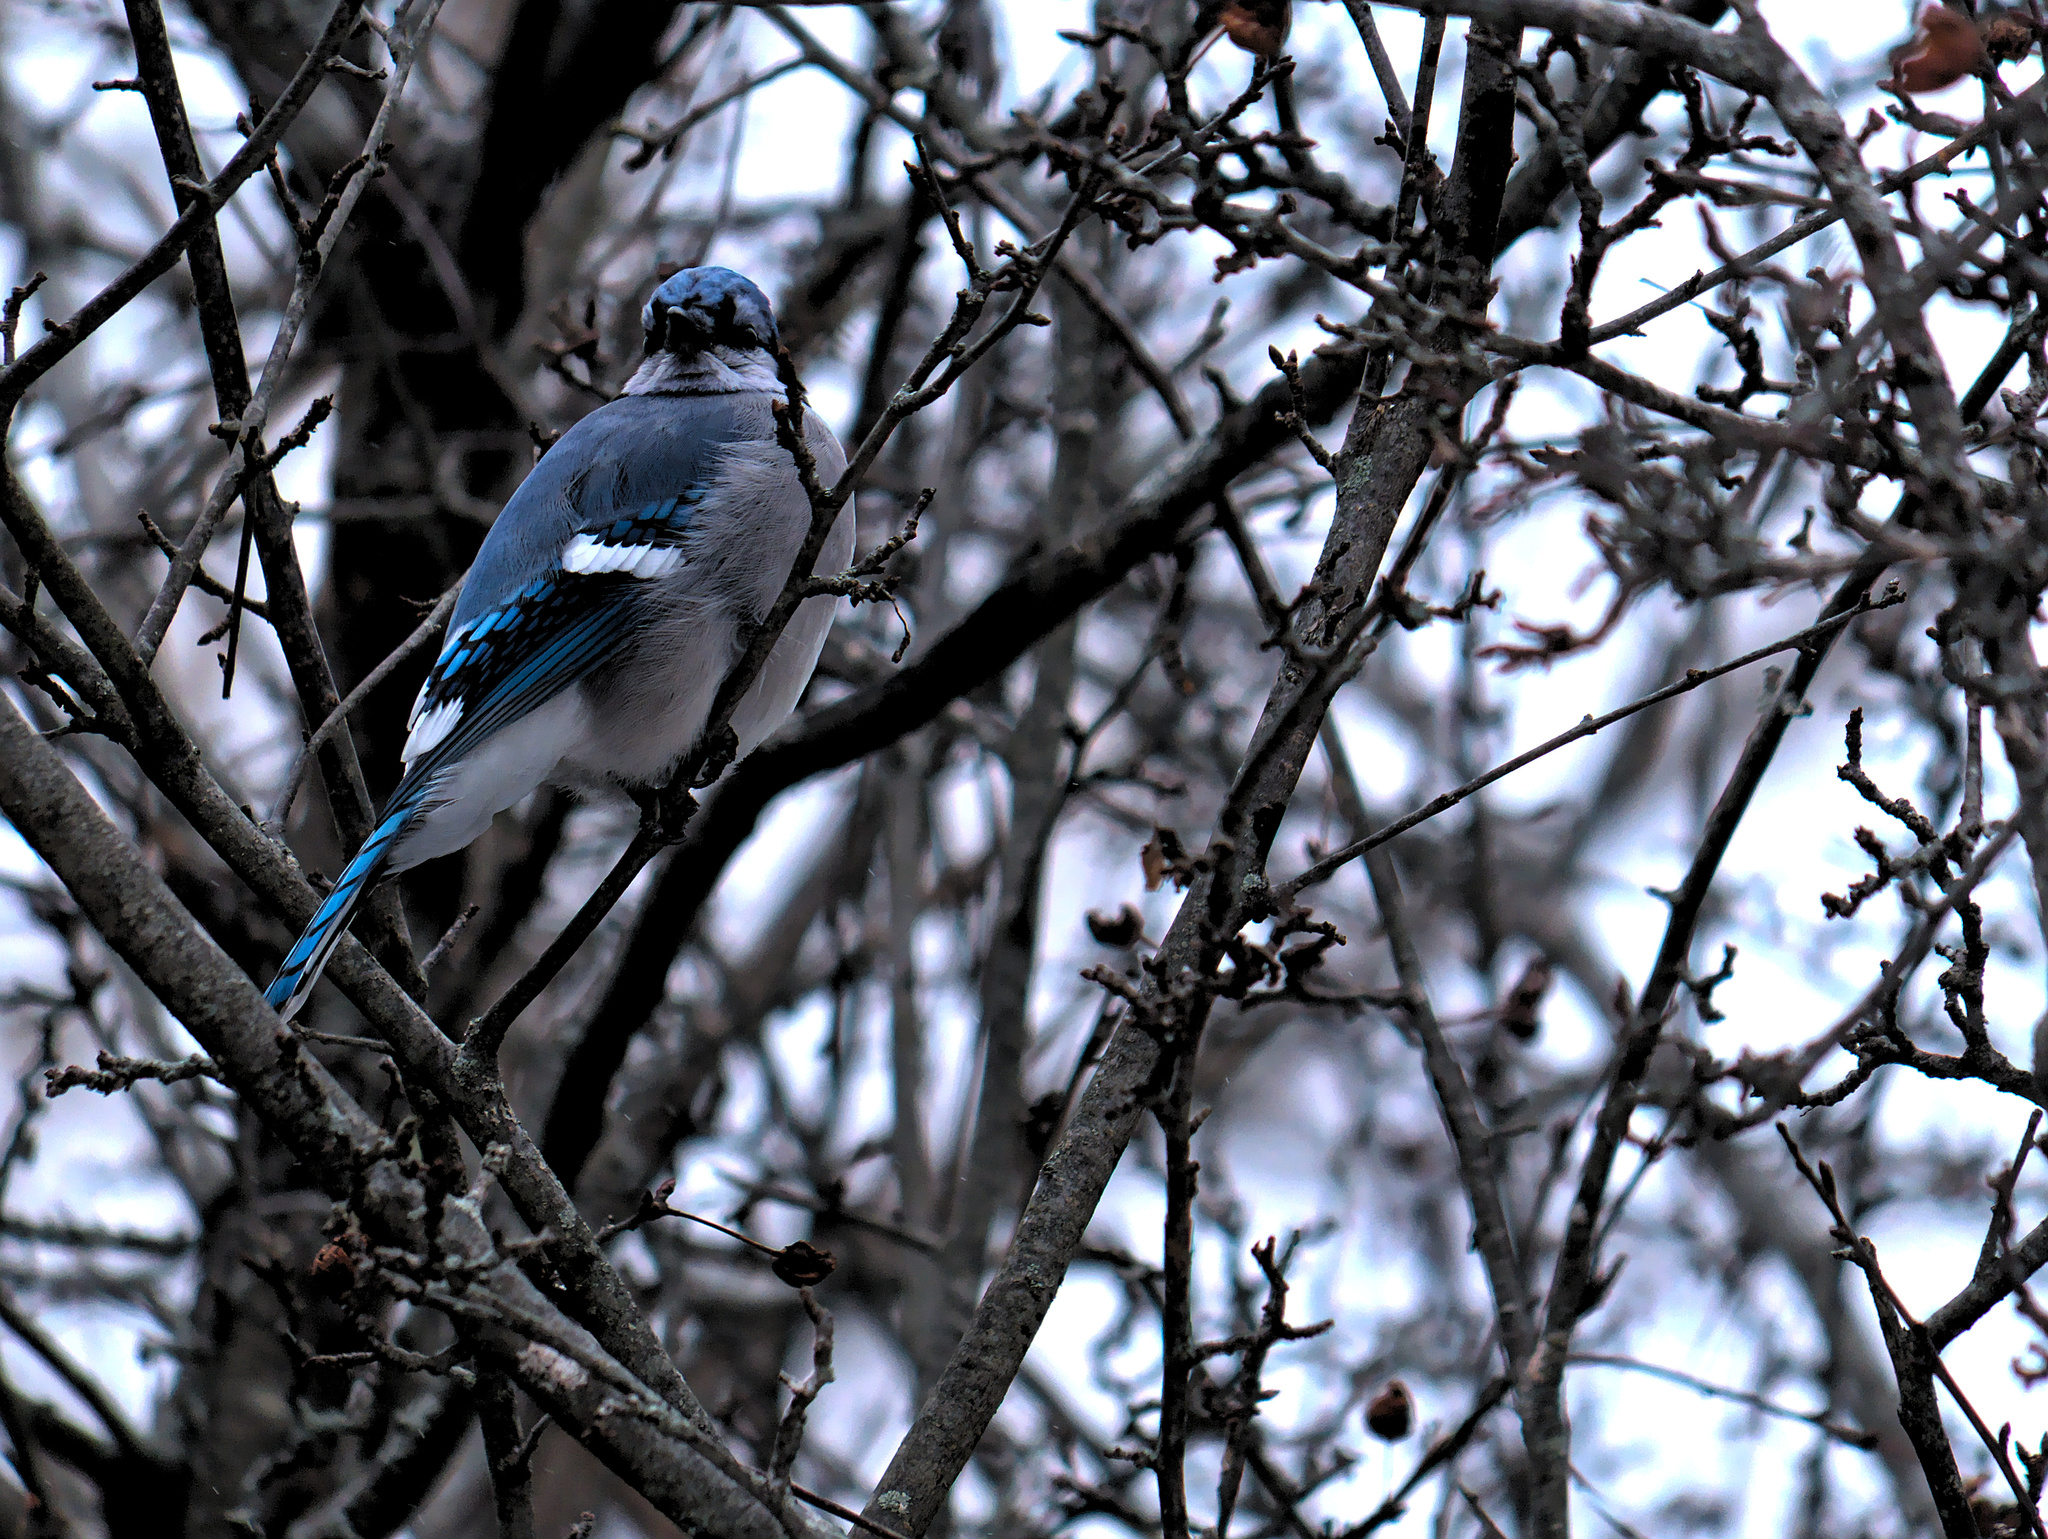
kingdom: Animalia
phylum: Chordata
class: Aves
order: Passeriformes
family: Corvidae
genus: Cyanocitta
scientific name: Cyanocitta cristata
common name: Blue jay
